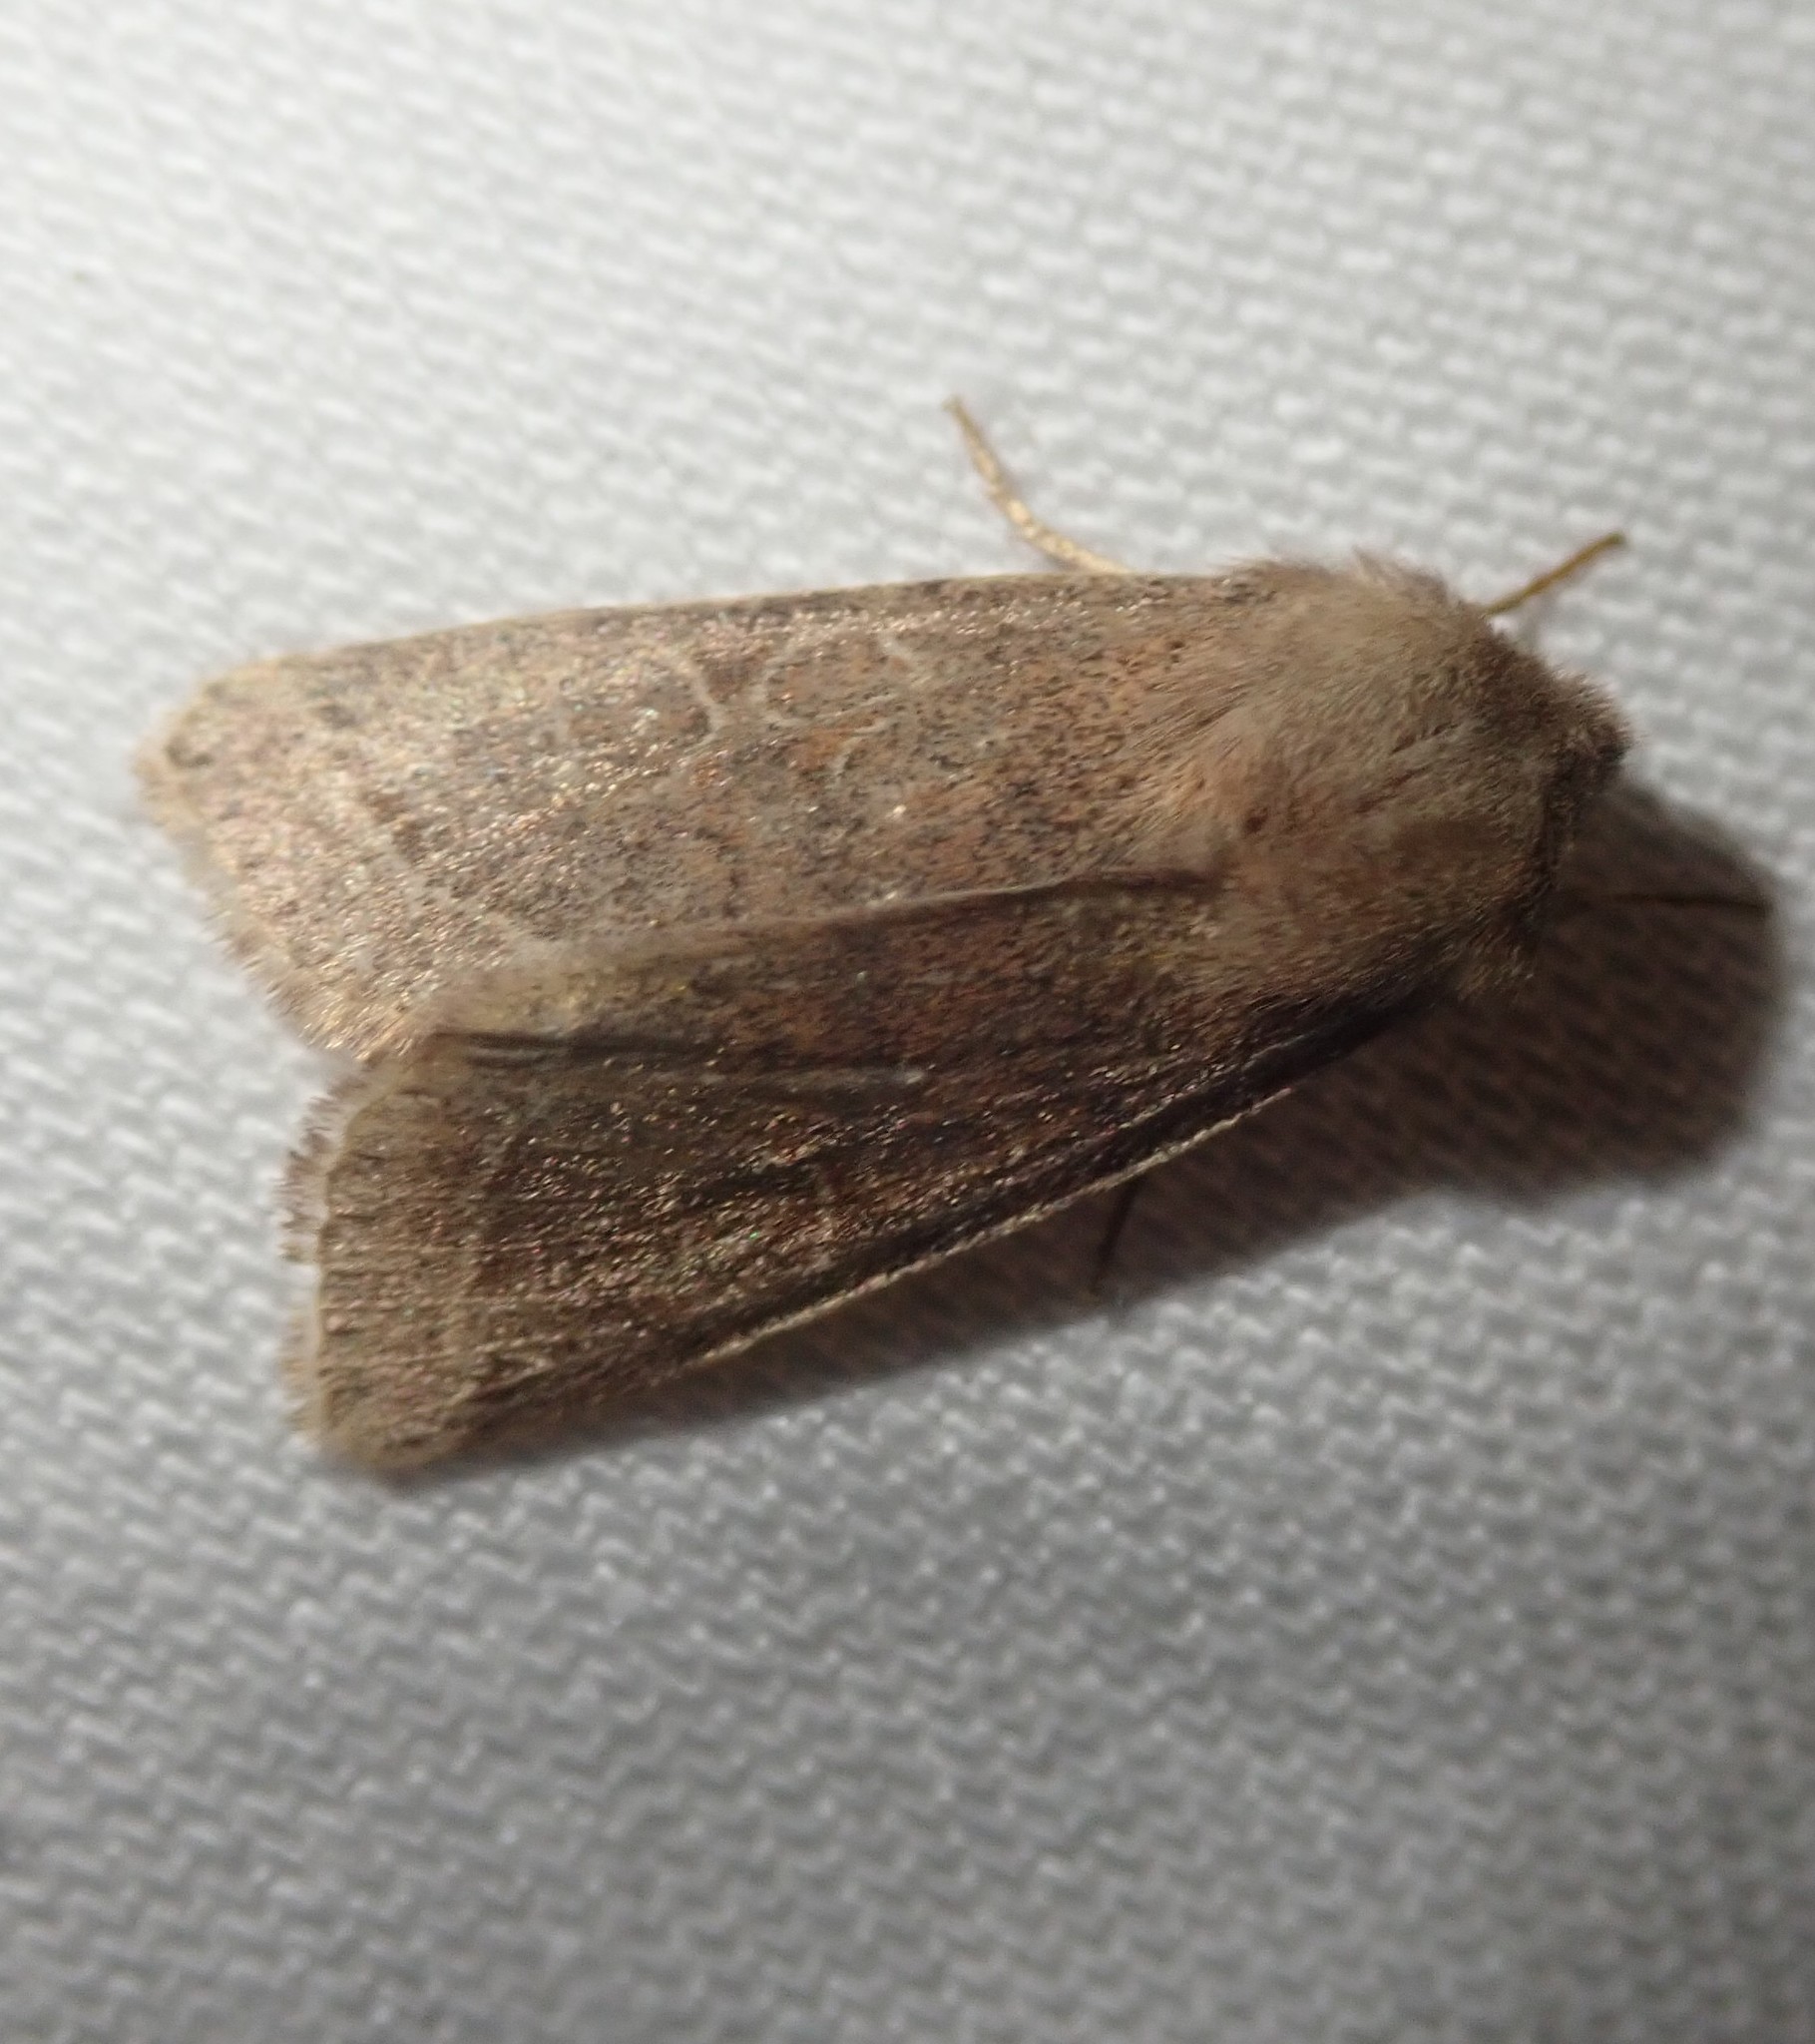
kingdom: Animalia
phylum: Arthropoda
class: Insecta
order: Lepidoptera
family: Noctuidae
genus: Orthosia
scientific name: Orthosia cerasi
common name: Common quaker
